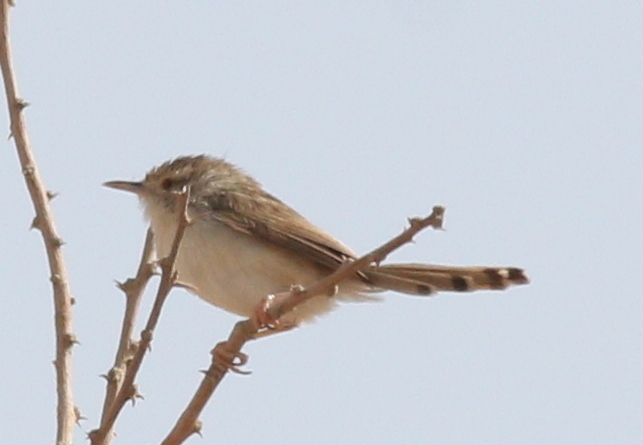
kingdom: Animalia
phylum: Chordata
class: Aves
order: Passeriformes
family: Cisticolidae
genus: Prinia
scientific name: Prinia gracilis
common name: Graceful prinia
